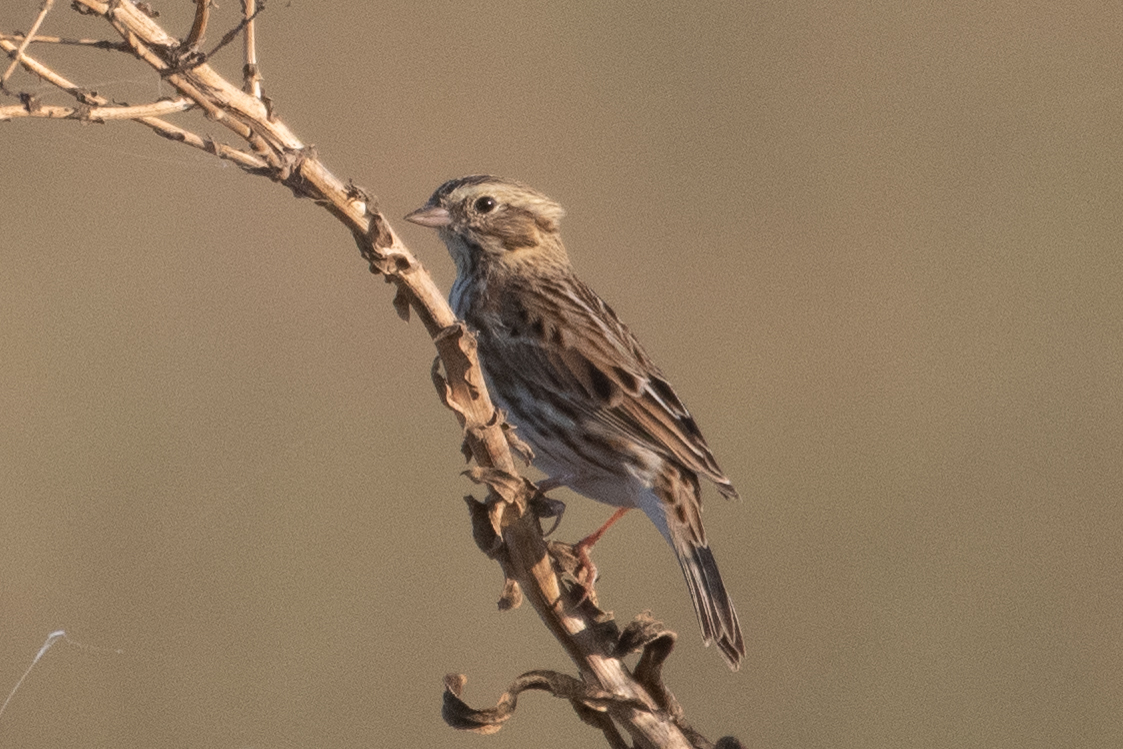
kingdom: Animalia
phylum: Chordata
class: Aves
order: Passeriformes
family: Passerellidae
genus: Passerculus
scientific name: Passerculus sandwichensis
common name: Savannah sparrow
